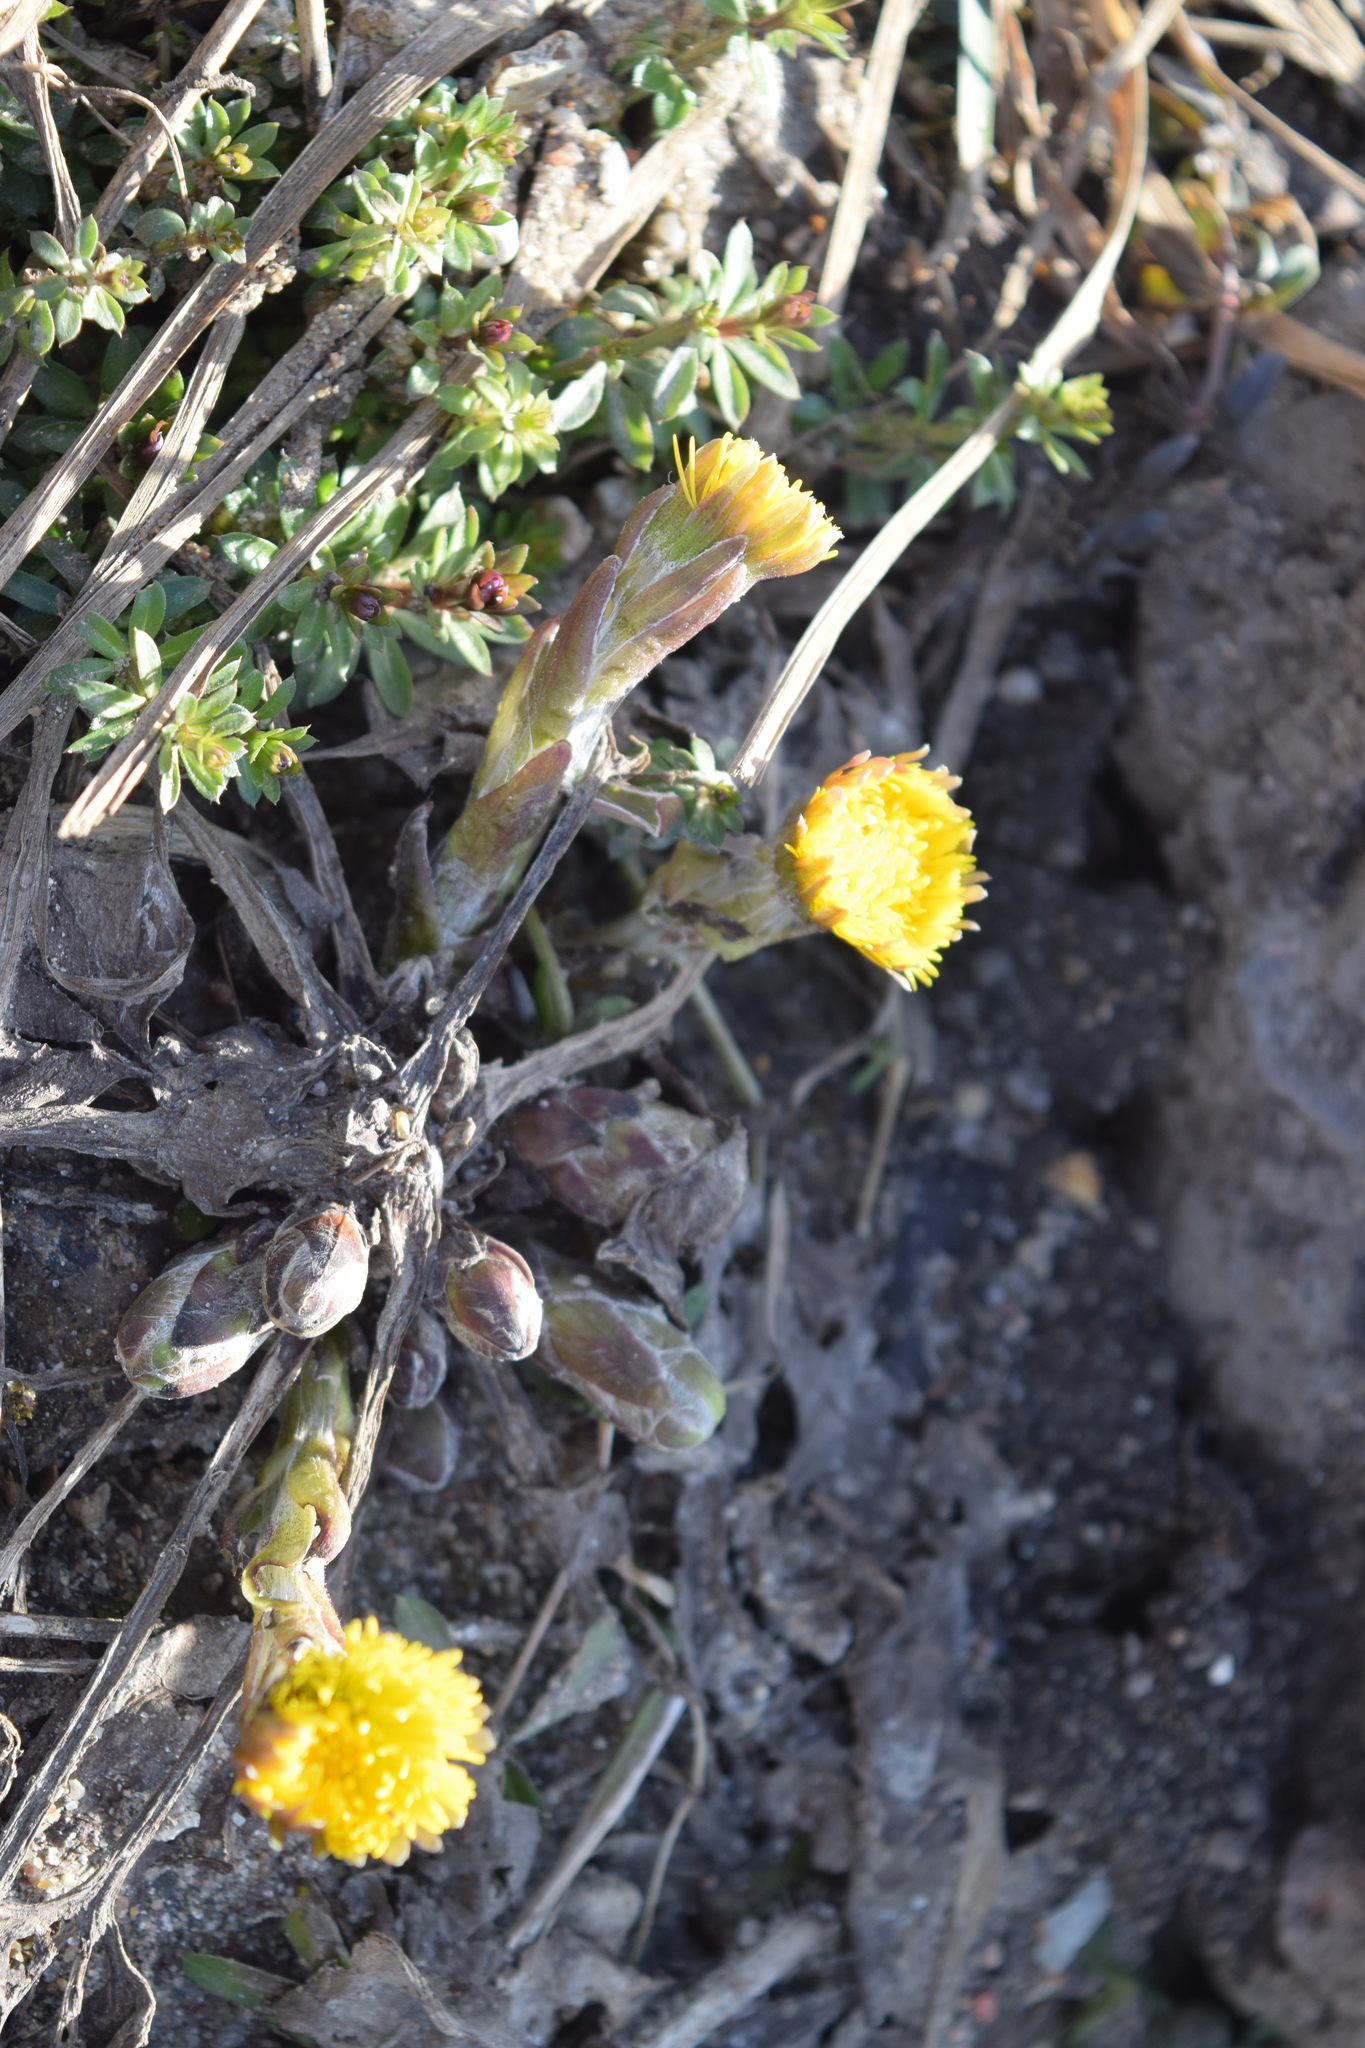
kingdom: Plantae
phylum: Tracheophyta
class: Magnoliopsida
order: Asterales
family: Asteraceae
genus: Tussilago
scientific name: Tussilago farfara
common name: Coltsfoot
